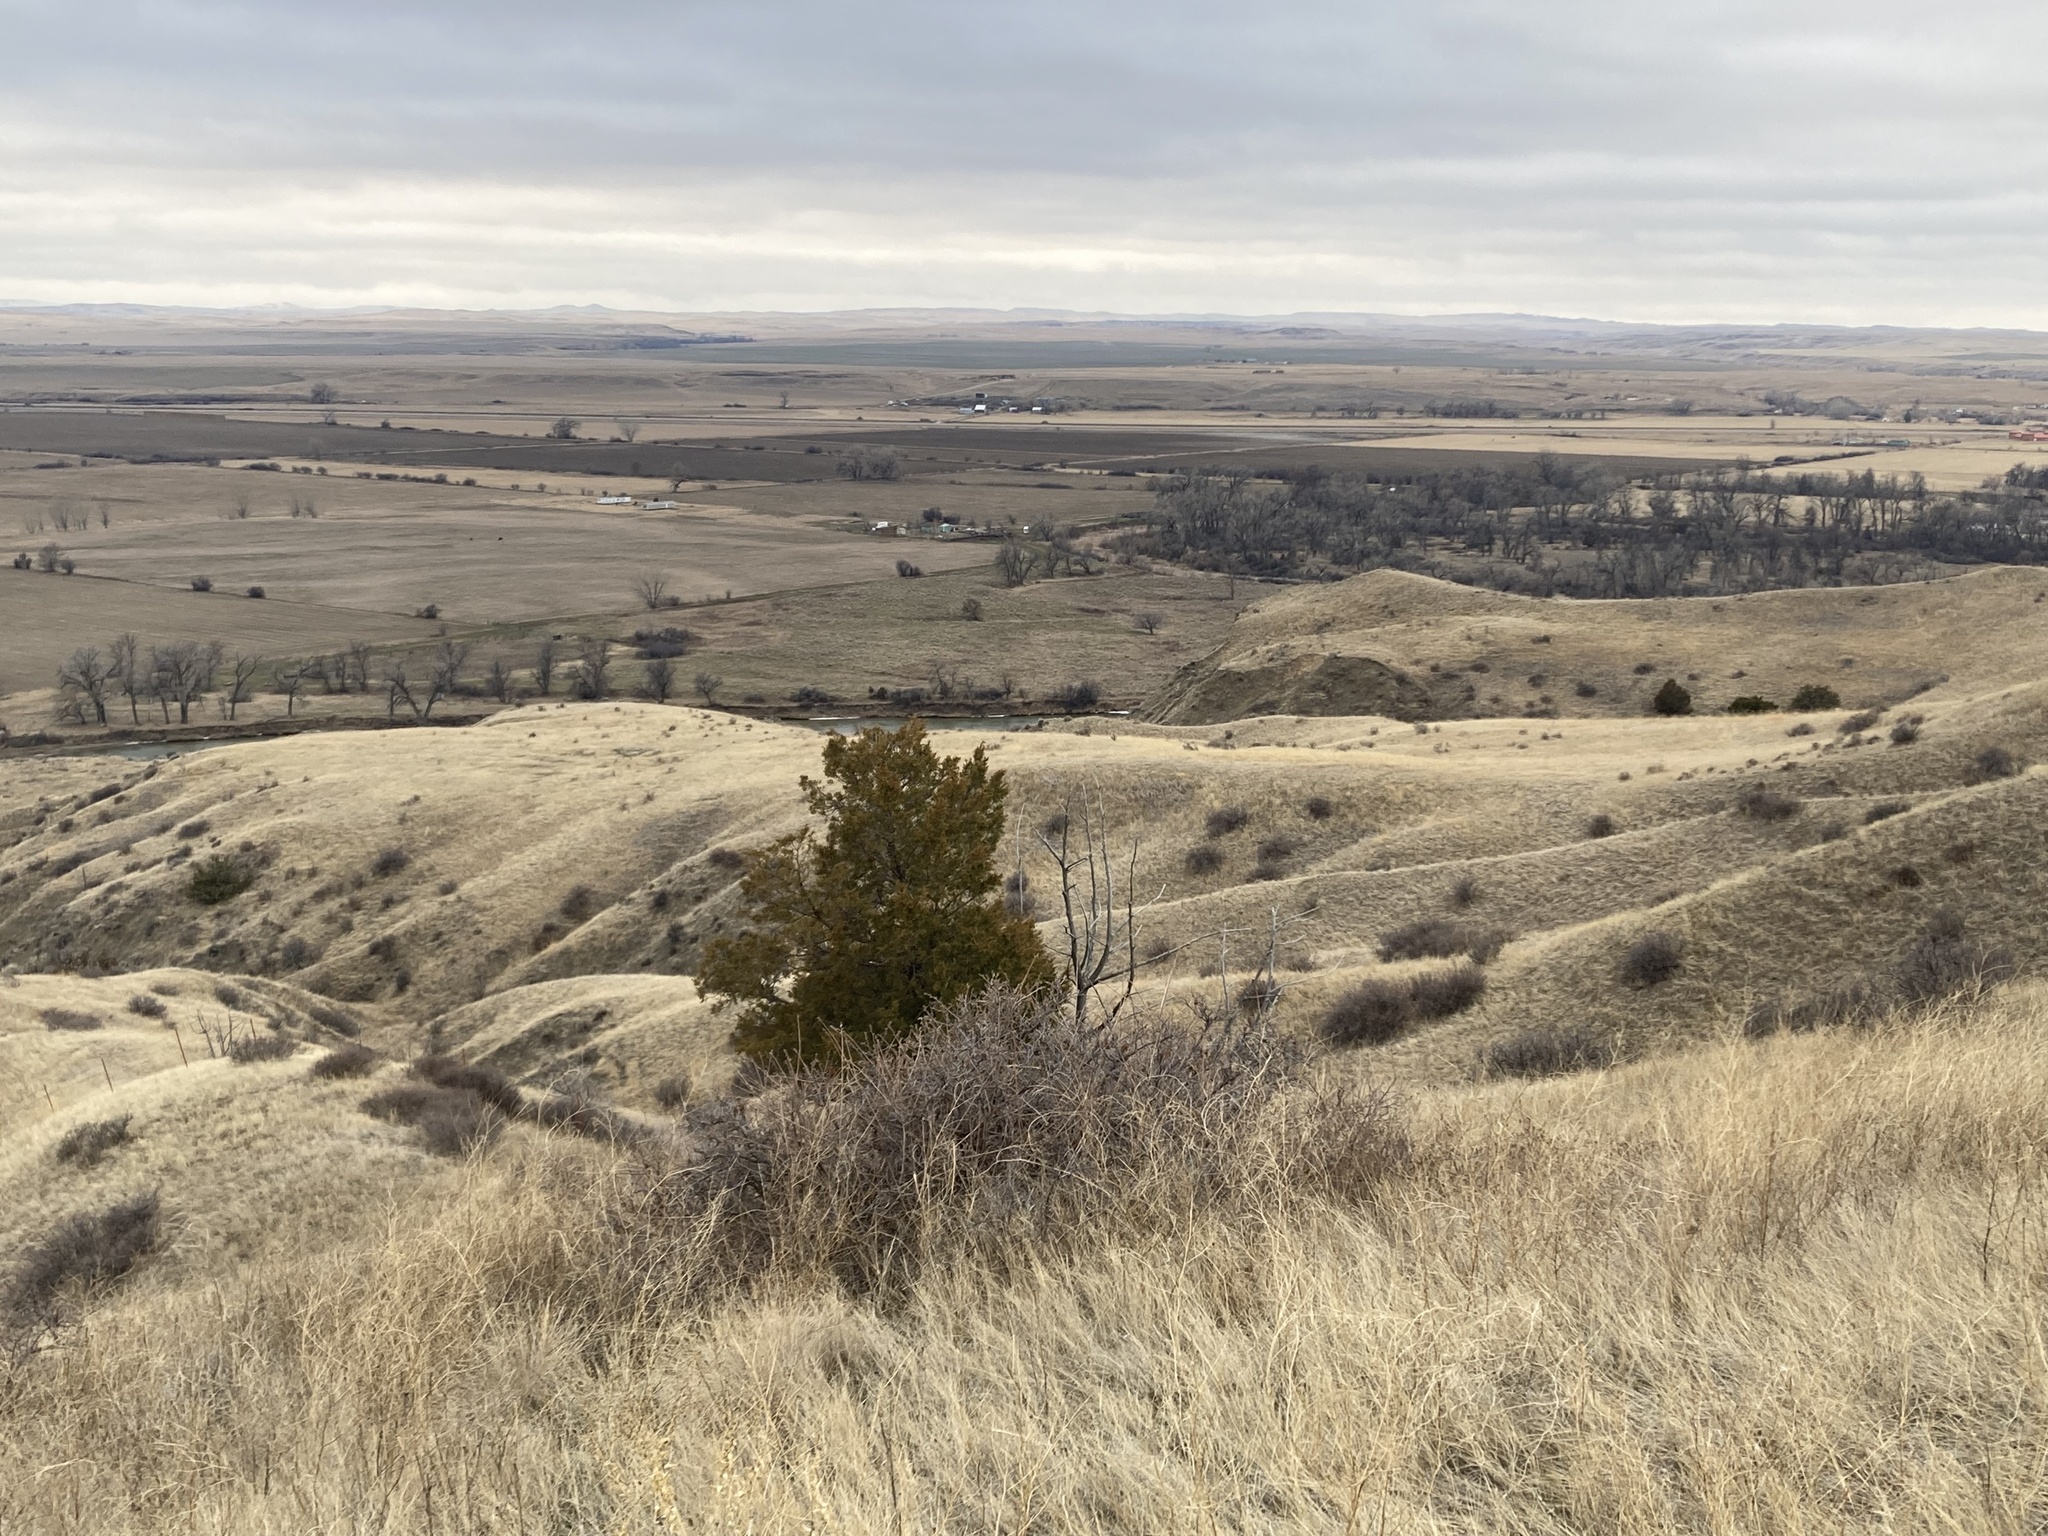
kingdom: Plantae
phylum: Tracheophyta
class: Pinopsida
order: Pinales
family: Cupressaceae
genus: Juniperus
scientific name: Juniperus scopulorum
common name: Rocky mountain juniper
